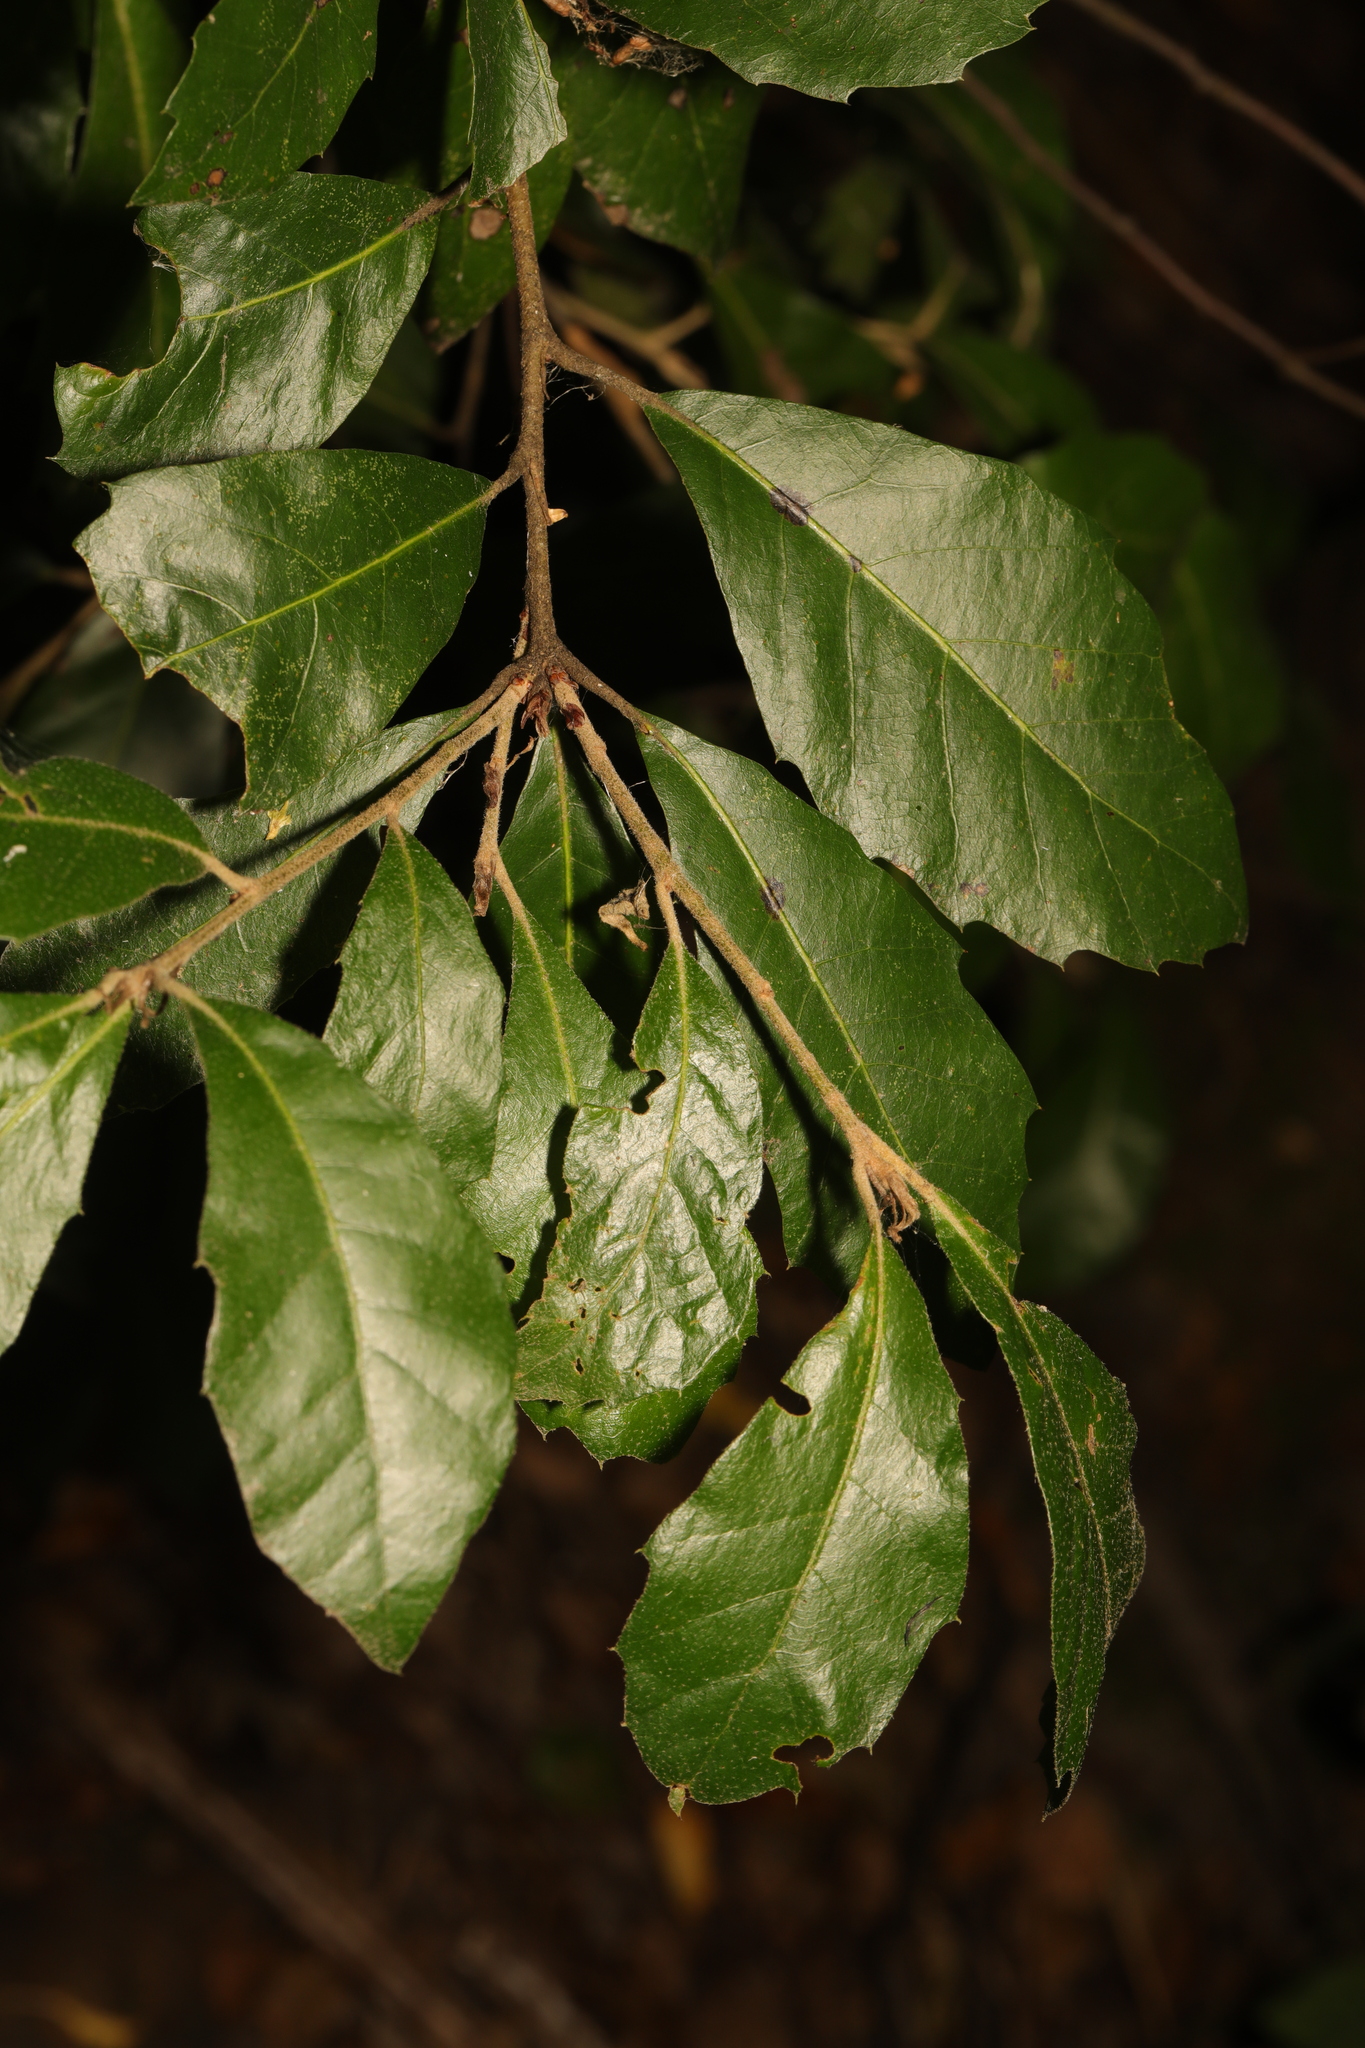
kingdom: Plantae
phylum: Tracheophyta
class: Magnoliopsida
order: Fagales
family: Fagaceae
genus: Quercus
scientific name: Quercus ilex
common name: Evergreen oak
